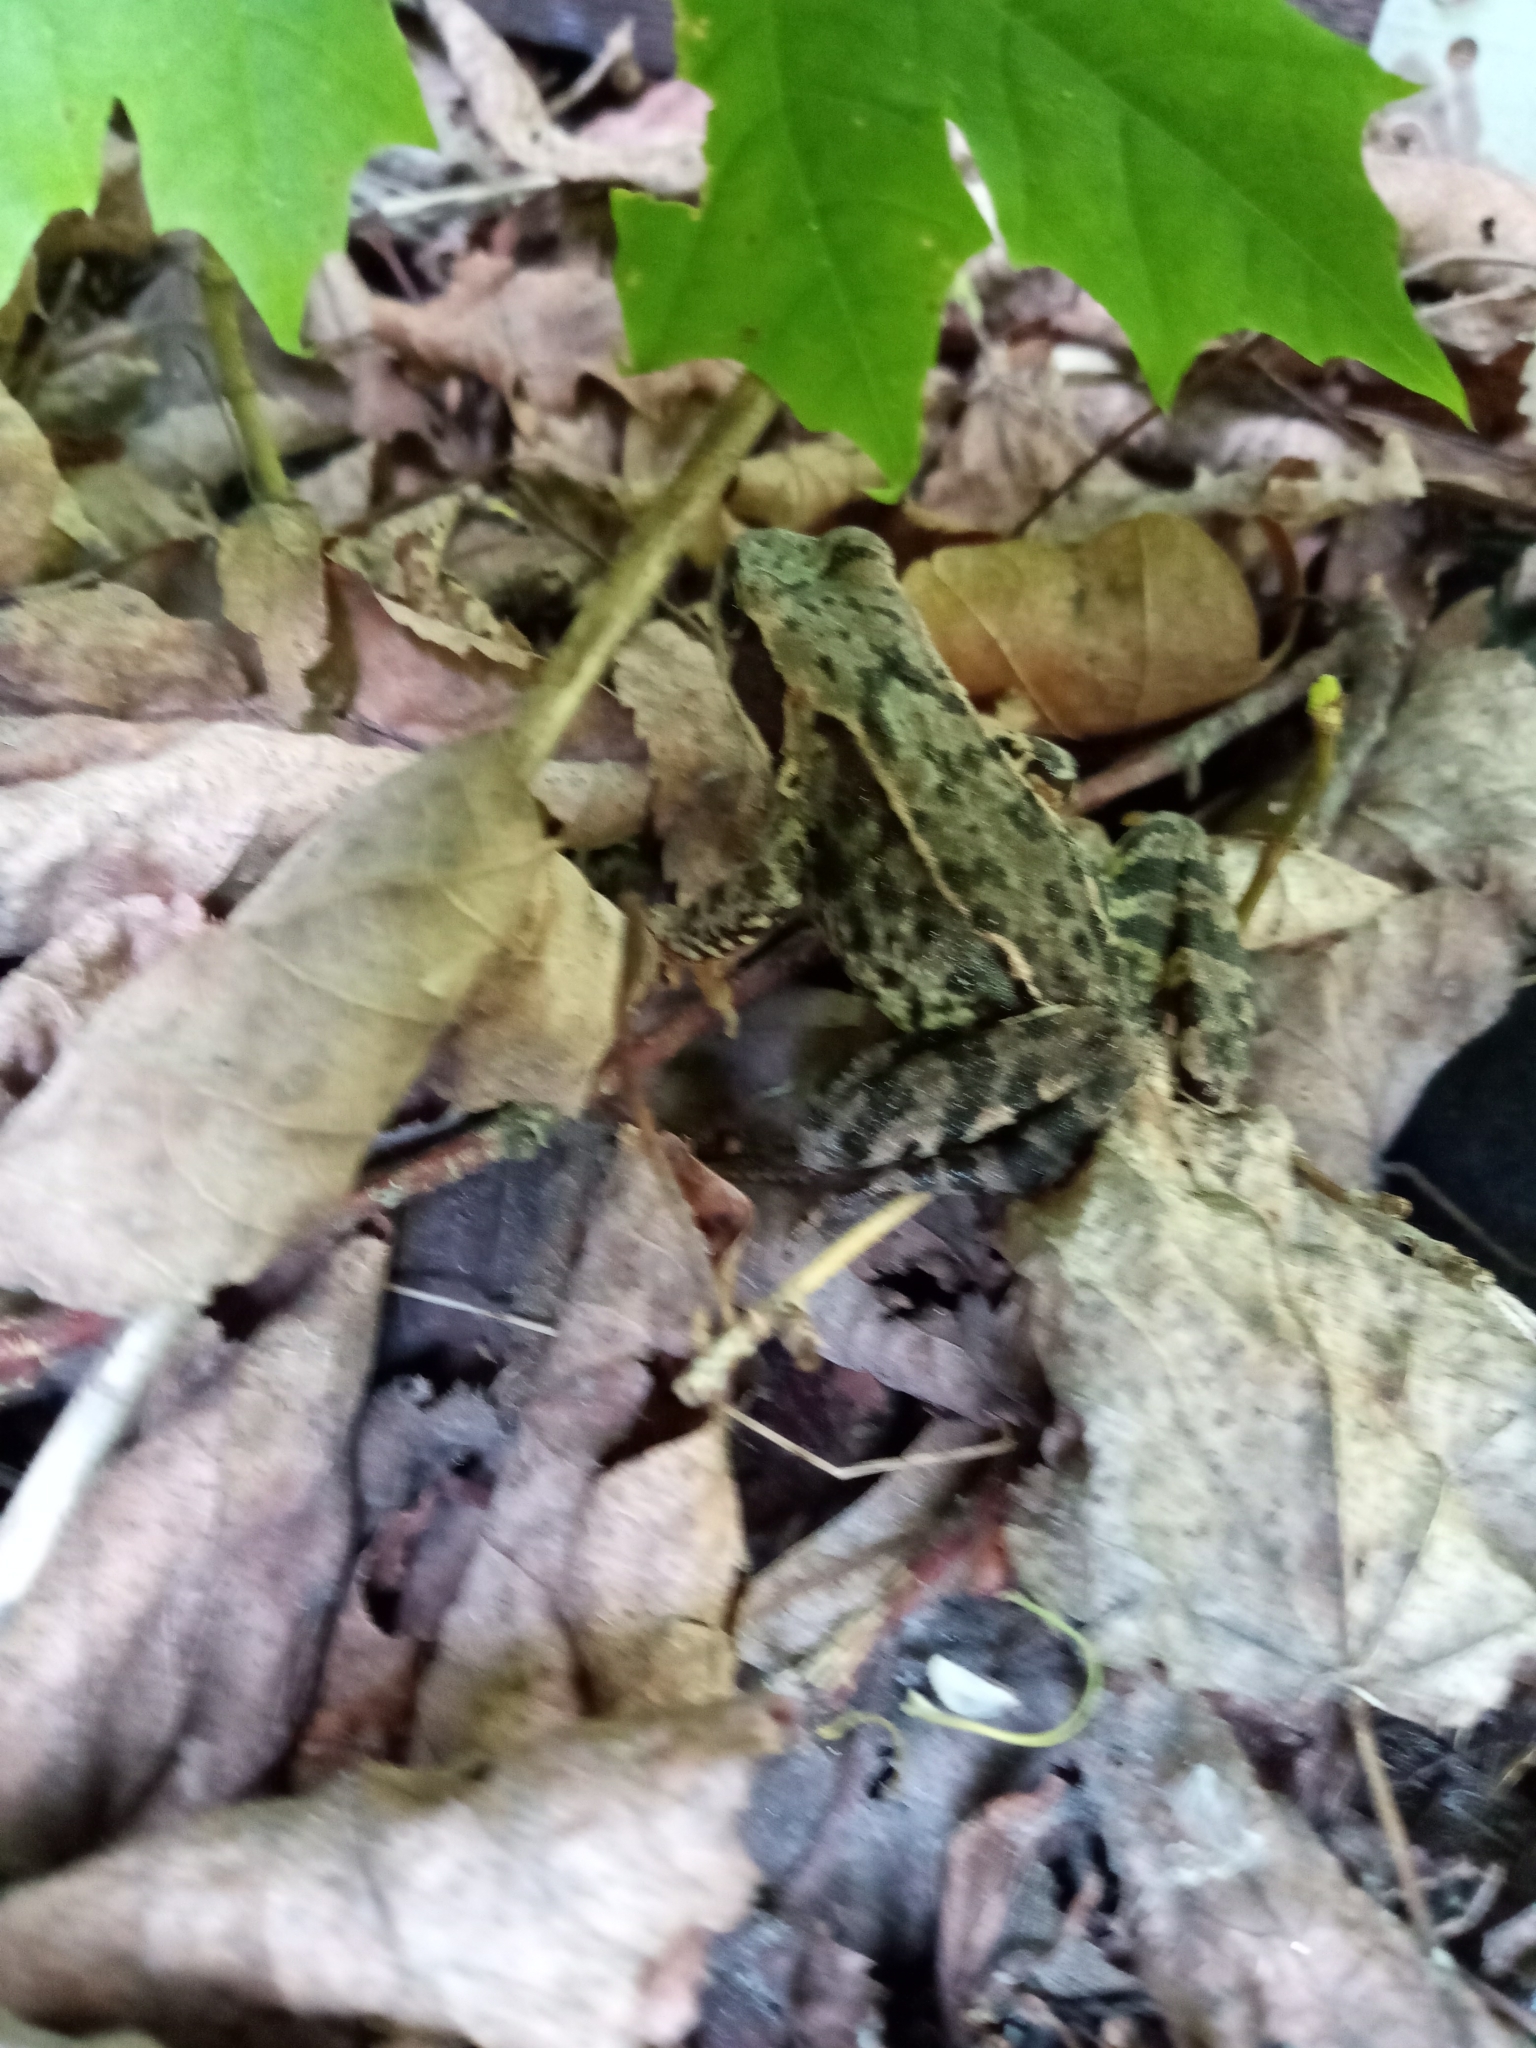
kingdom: Animalia
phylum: Chordata
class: Amphibia
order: Anura
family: Ranidae
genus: Rana
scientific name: Rana temporaria
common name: Common frog
